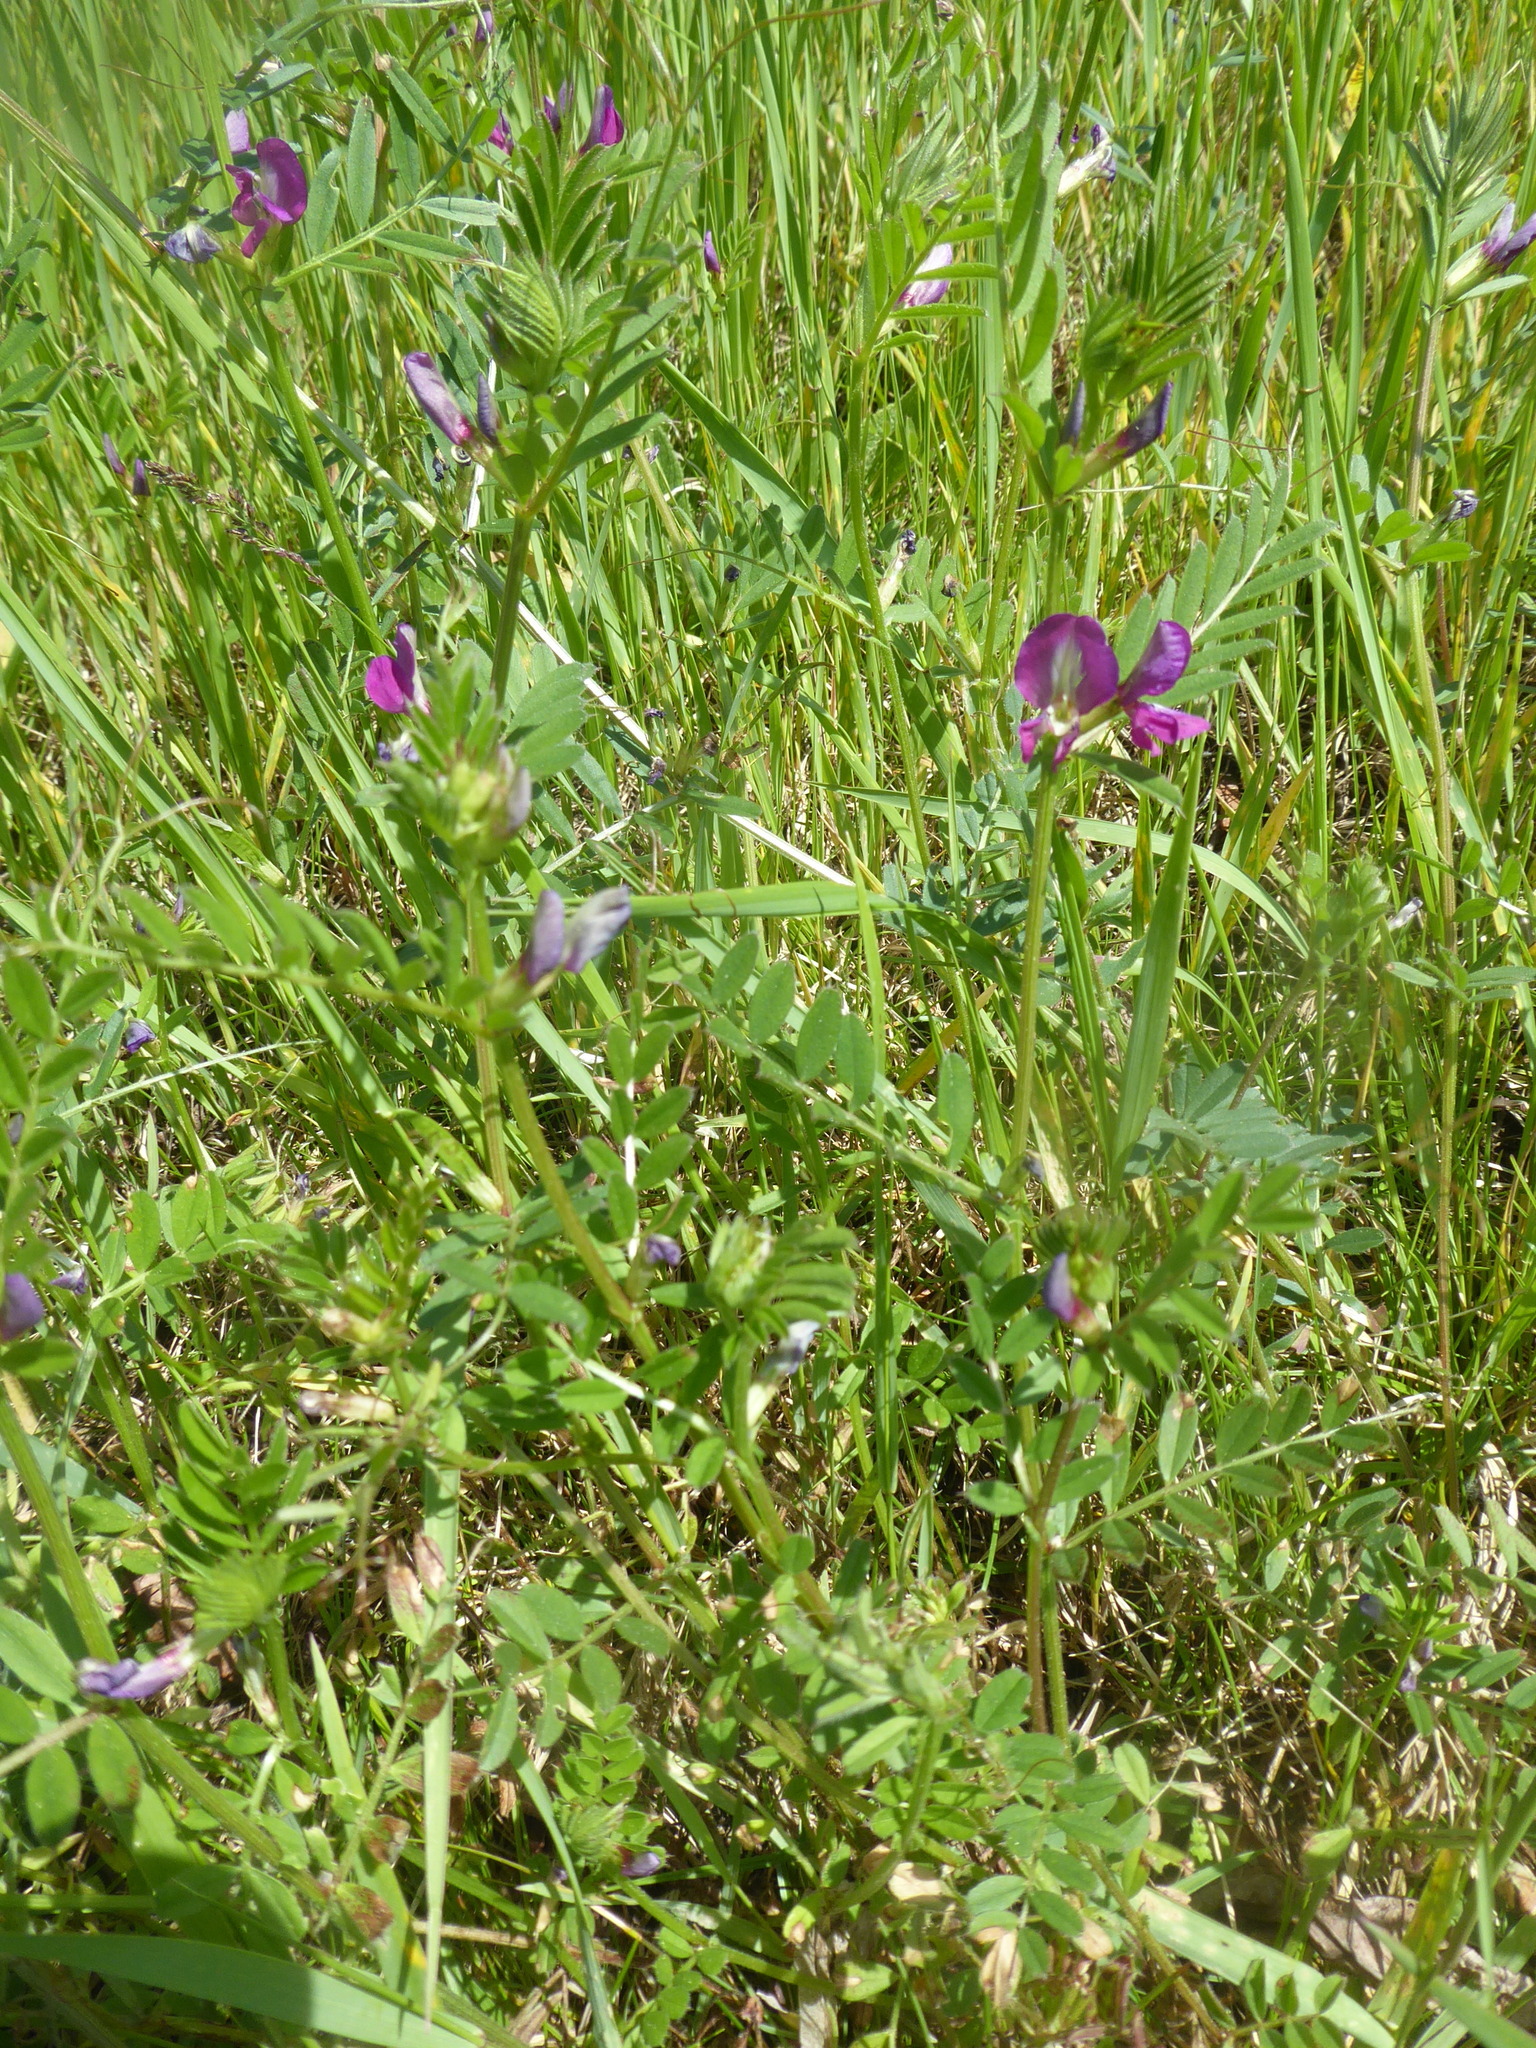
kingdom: Plantae
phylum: Tracheophyta
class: Magnoliopsida
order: Fabales
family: Fabaceae
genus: Vicia
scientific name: Vicia sativa
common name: Garden vetch
